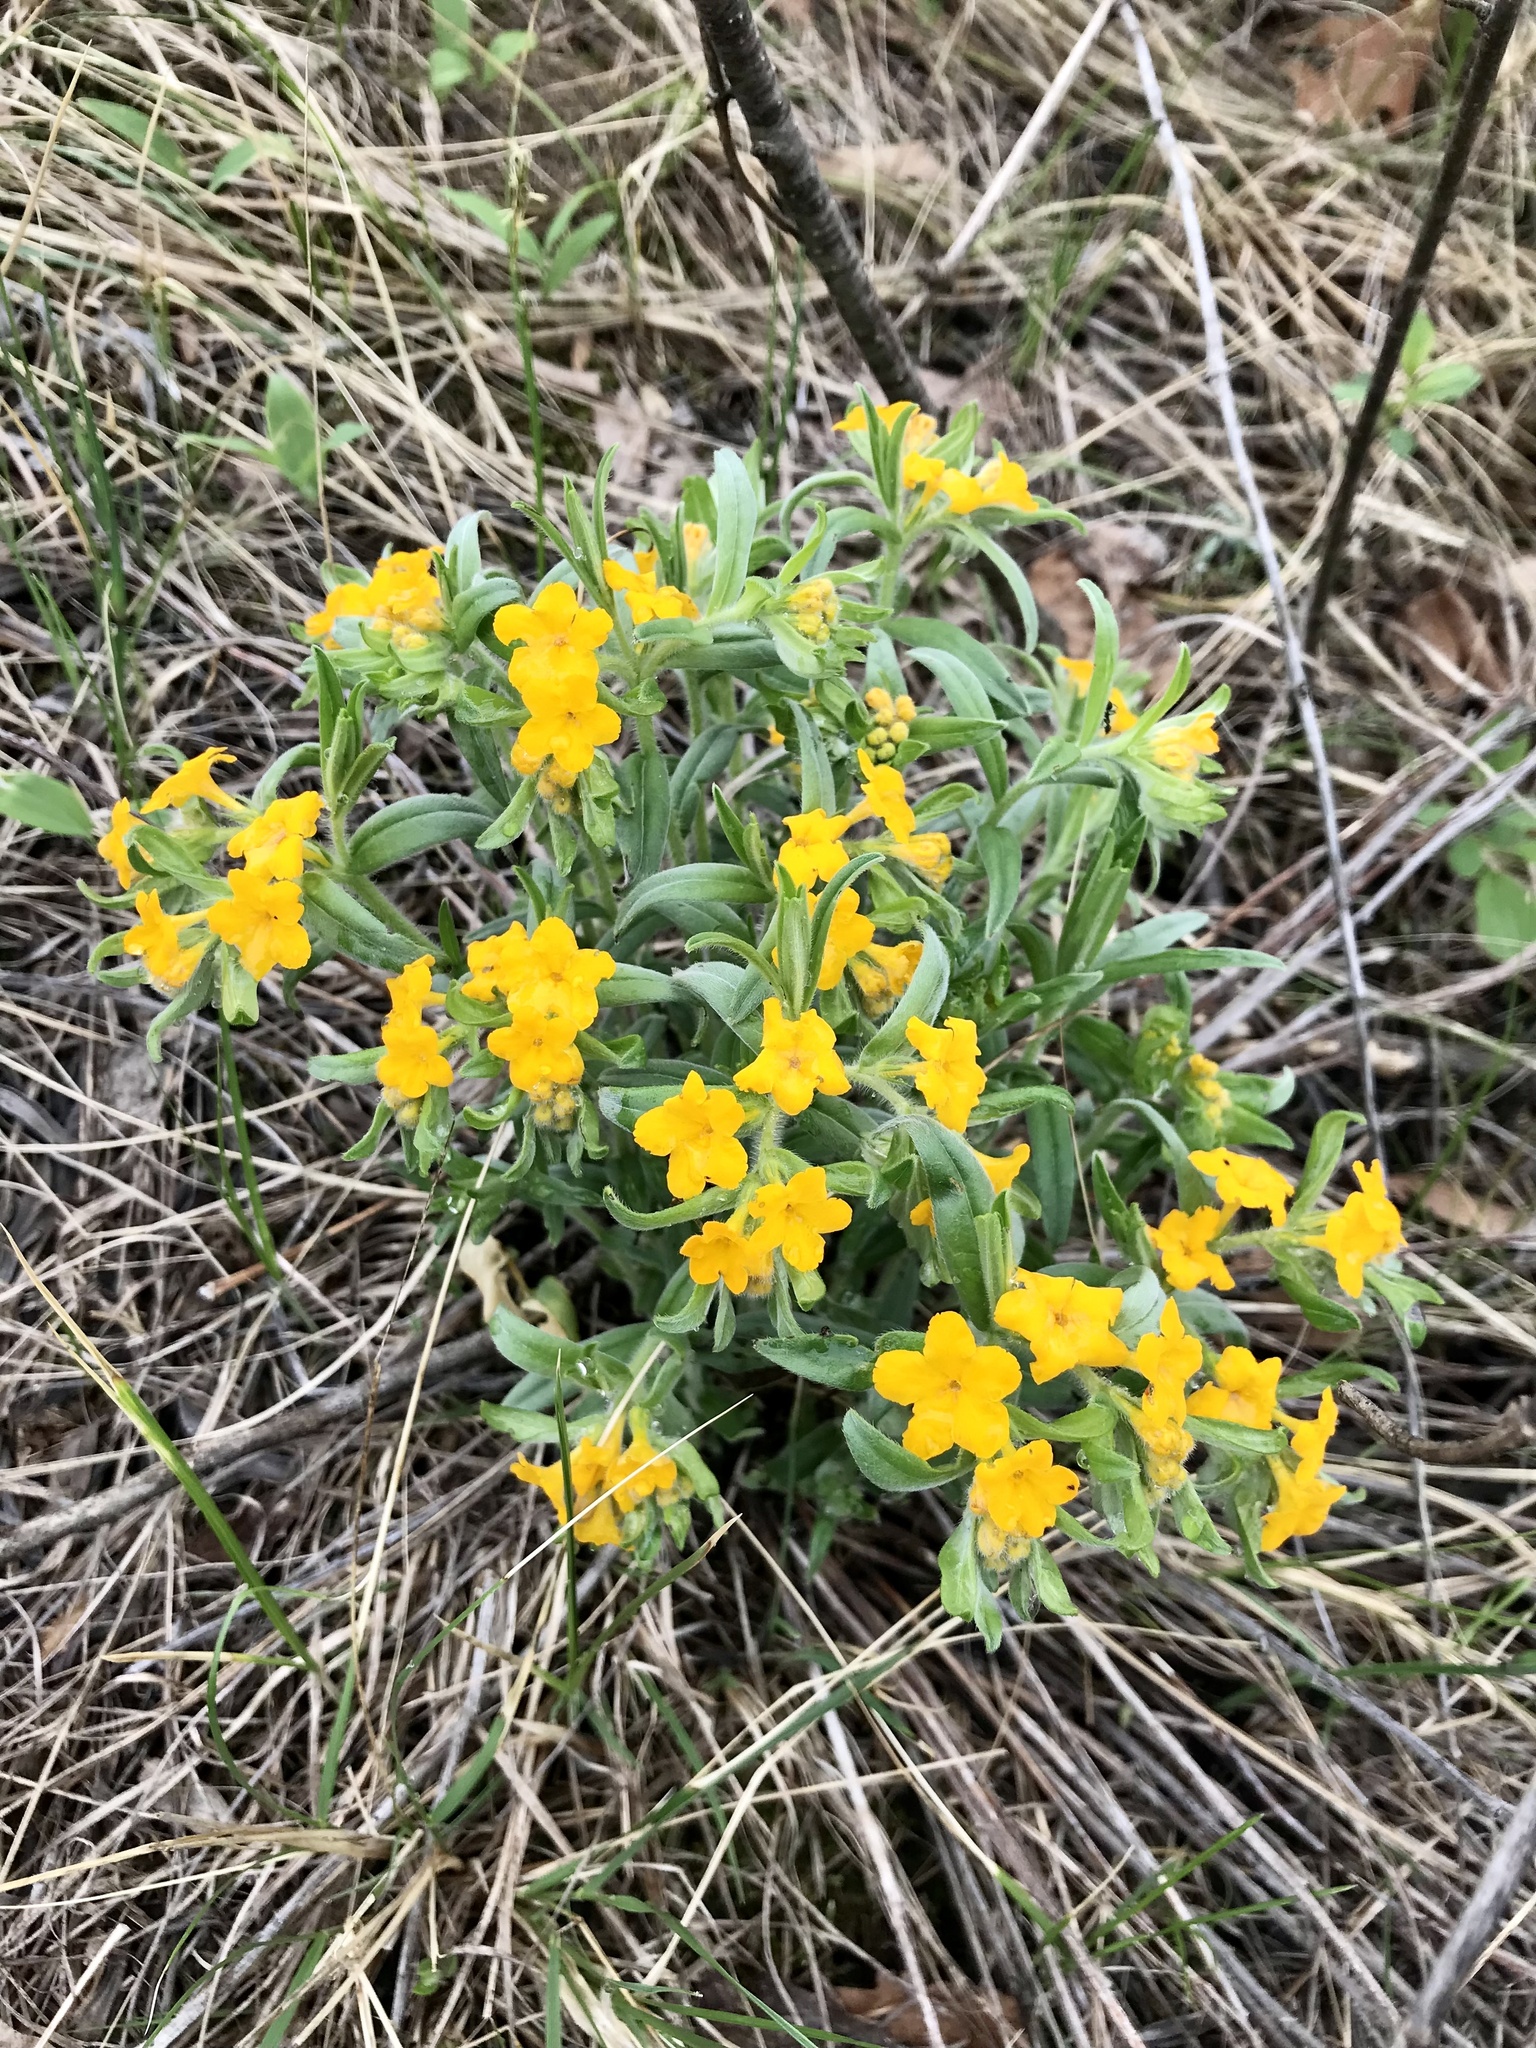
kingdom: Plantae
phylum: Tracheophyta
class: Magnoliopsida
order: Boraginales
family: Boraginaceae
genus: Lithospermum
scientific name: Lithospermum canescens
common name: Hoary puccoon
